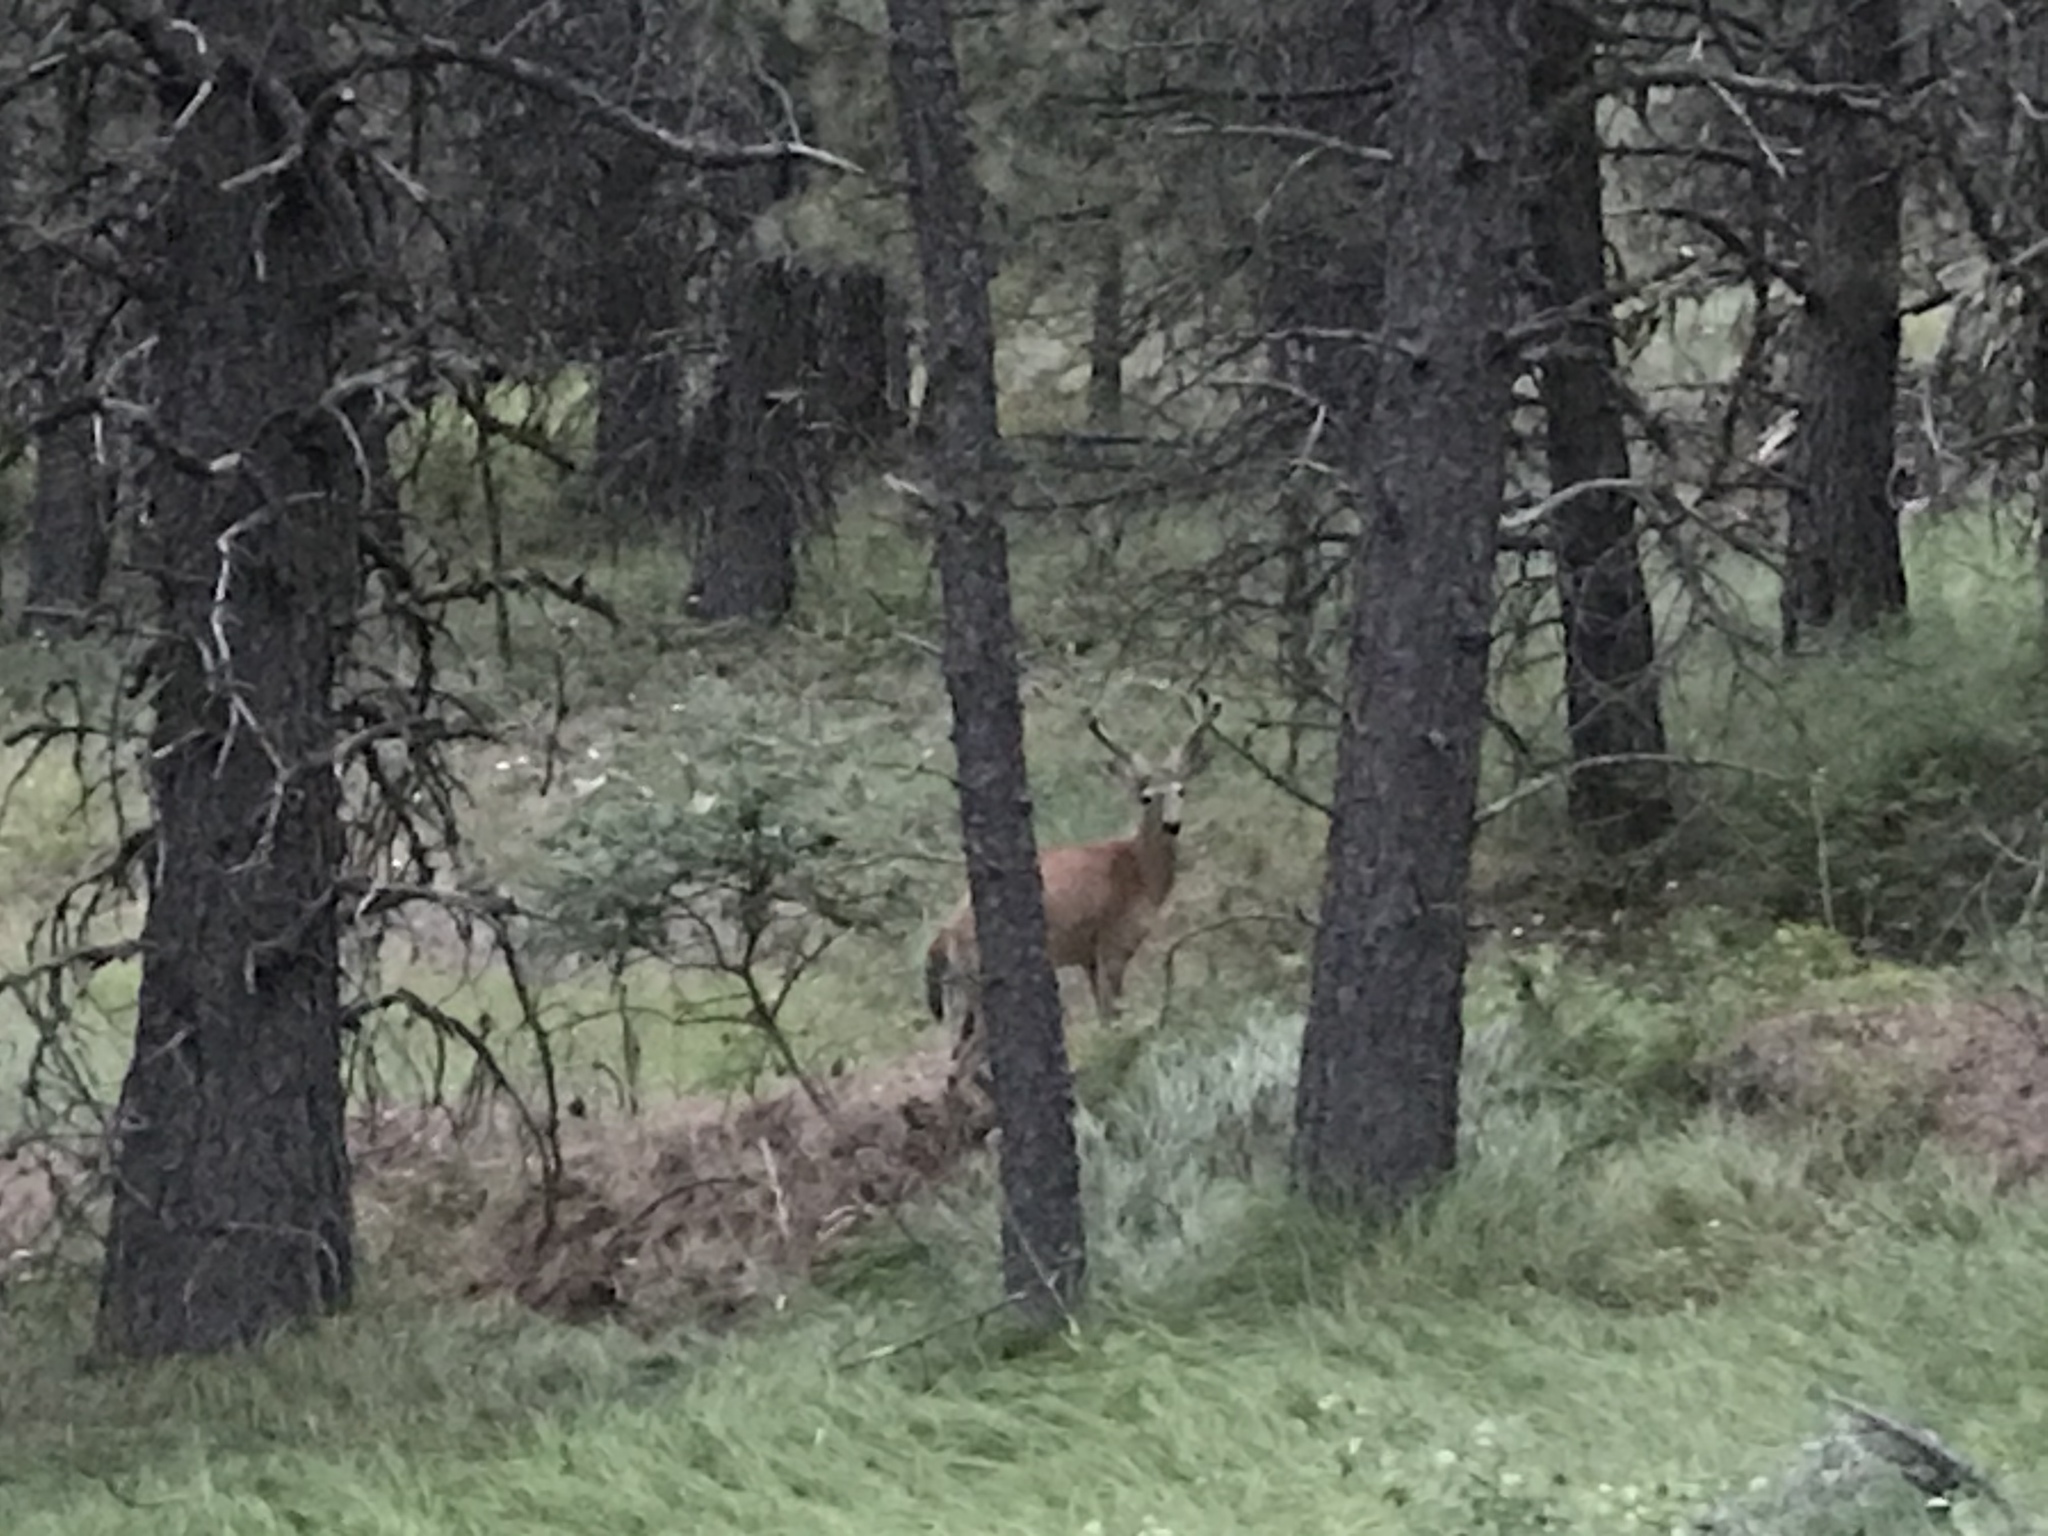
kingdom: Animalia
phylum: Chordata
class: Mammalia
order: Artiodactyla
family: Cervidae
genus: Odocoileus
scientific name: Odocoileus virginianus
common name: White-tailed deer
